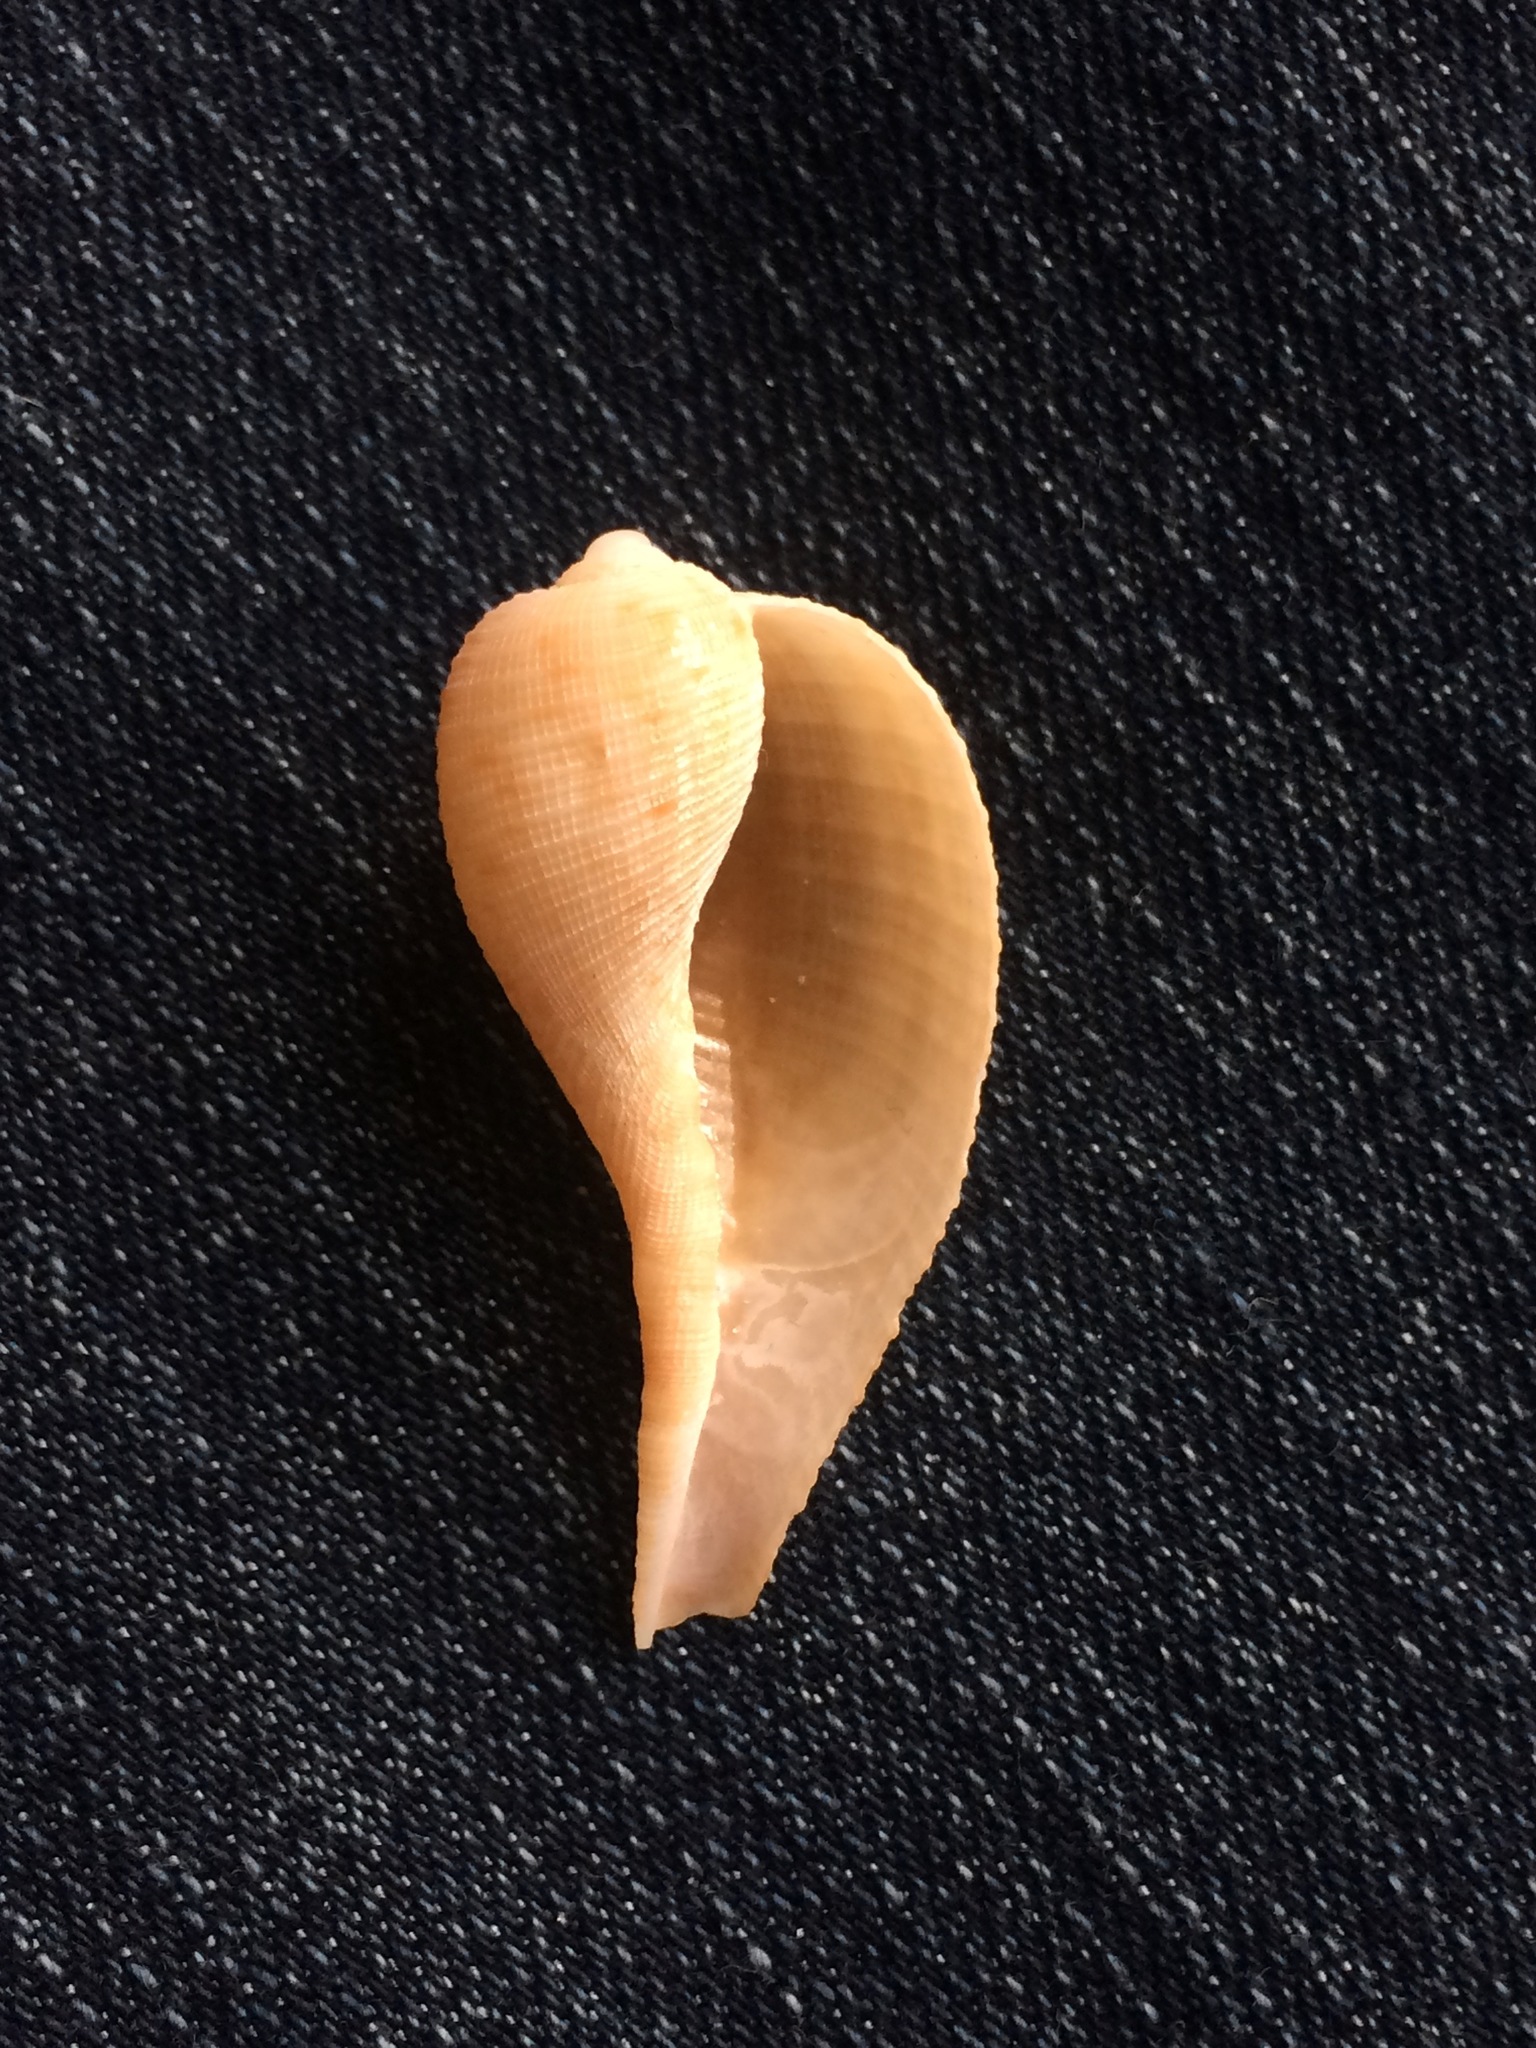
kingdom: Animalia
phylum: Mollusca
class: Gastropoda
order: Littorinimorpha
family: Ficidae
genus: Ficus
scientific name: Ficus papyratia
